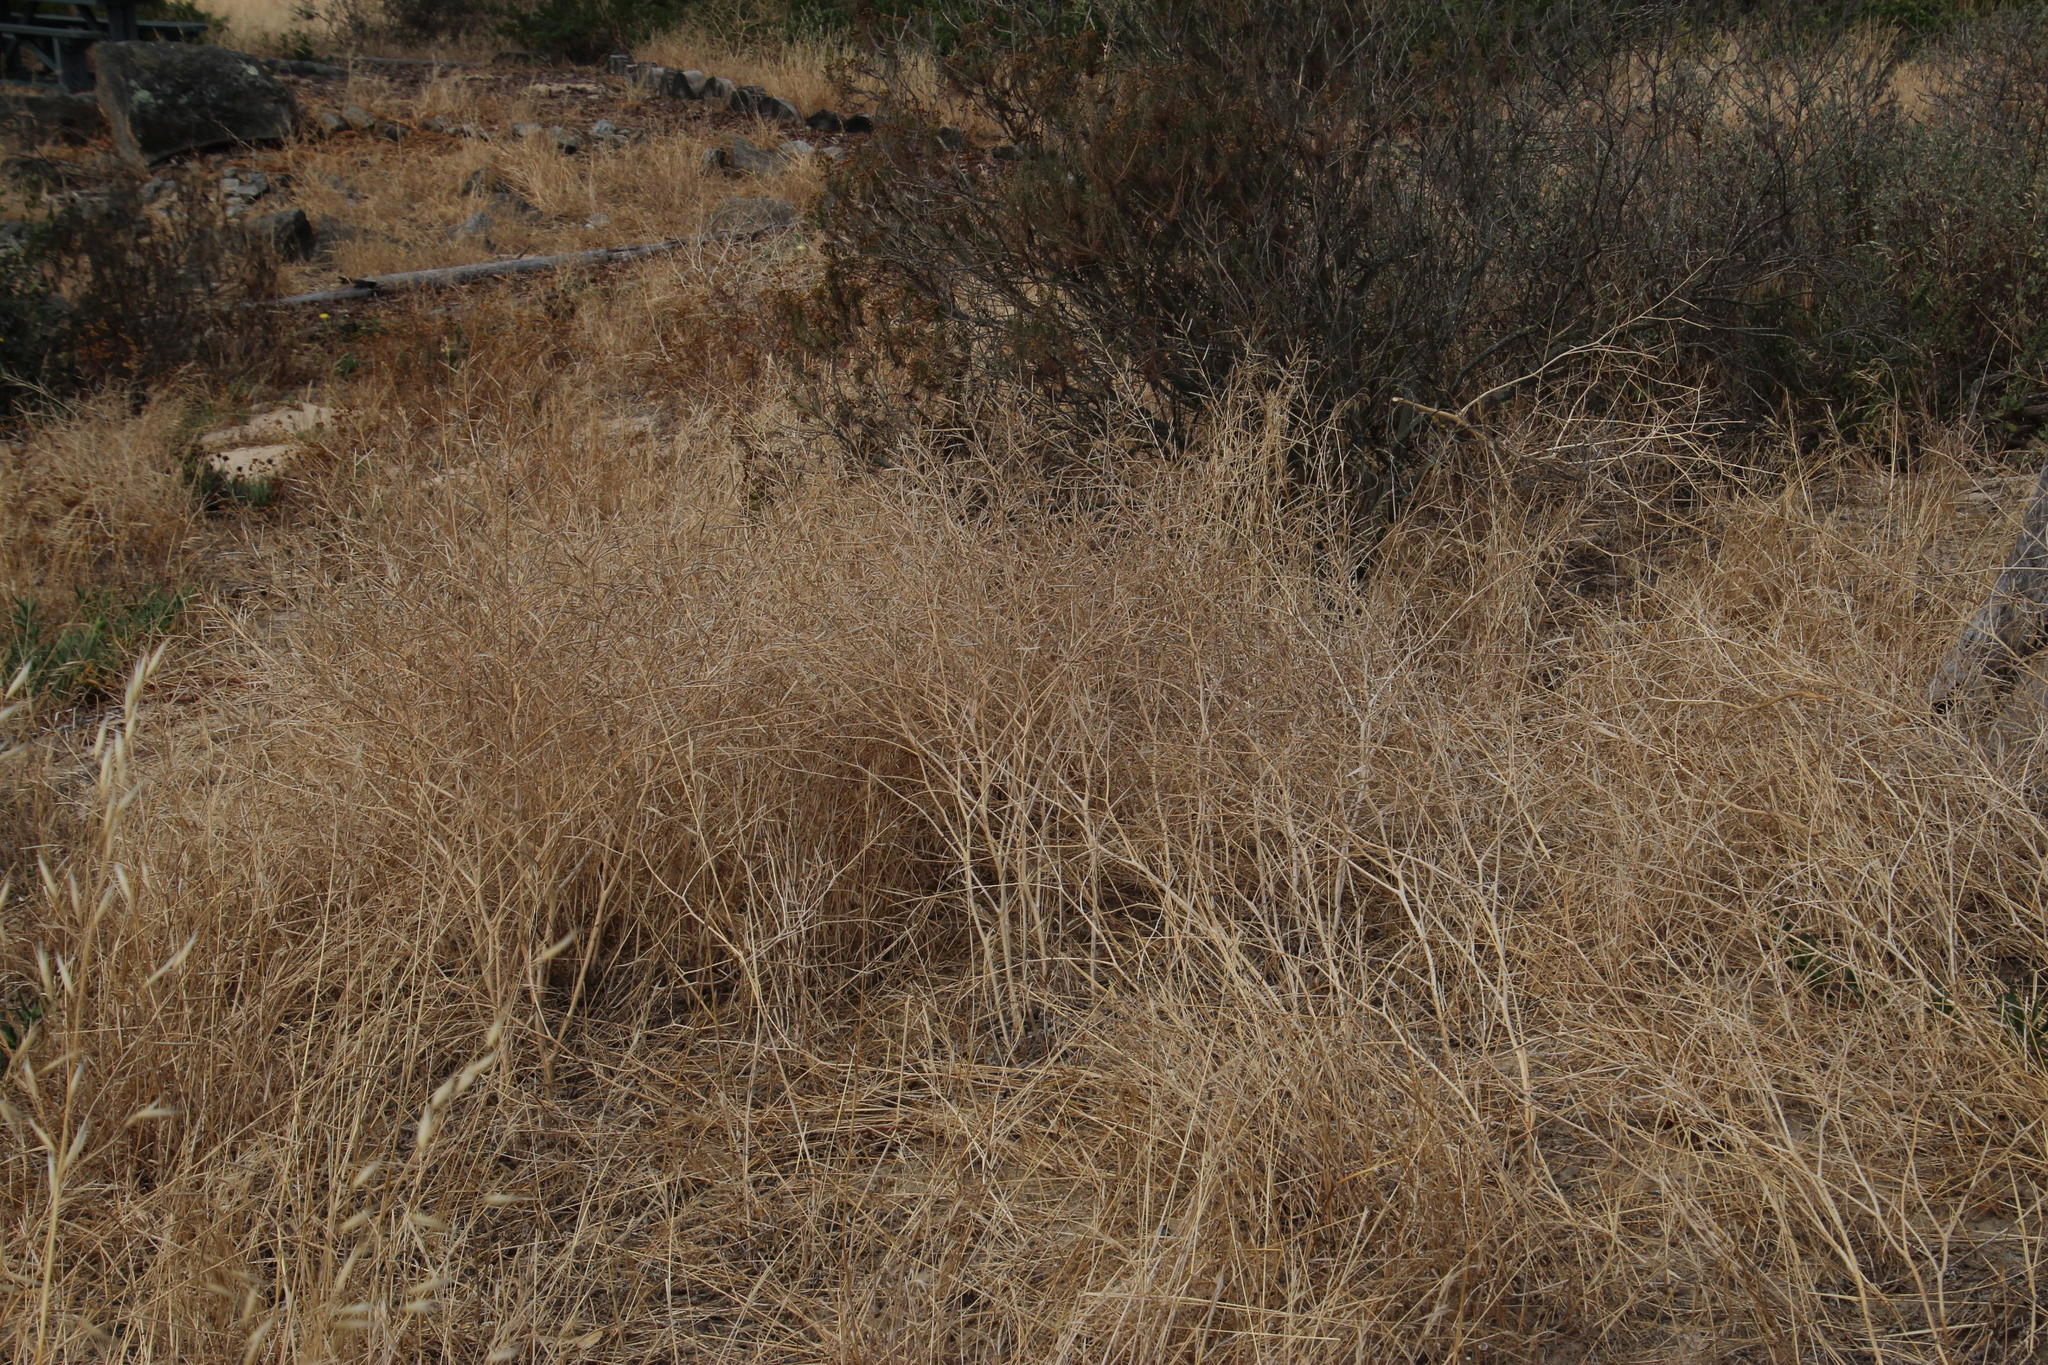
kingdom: Plantae
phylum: Tracheophyta
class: Magnoliopsida
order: Brassicales
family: Brassicaceae
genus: Raphanus
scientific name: Raphanus raphanistrum
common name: Wild radish
